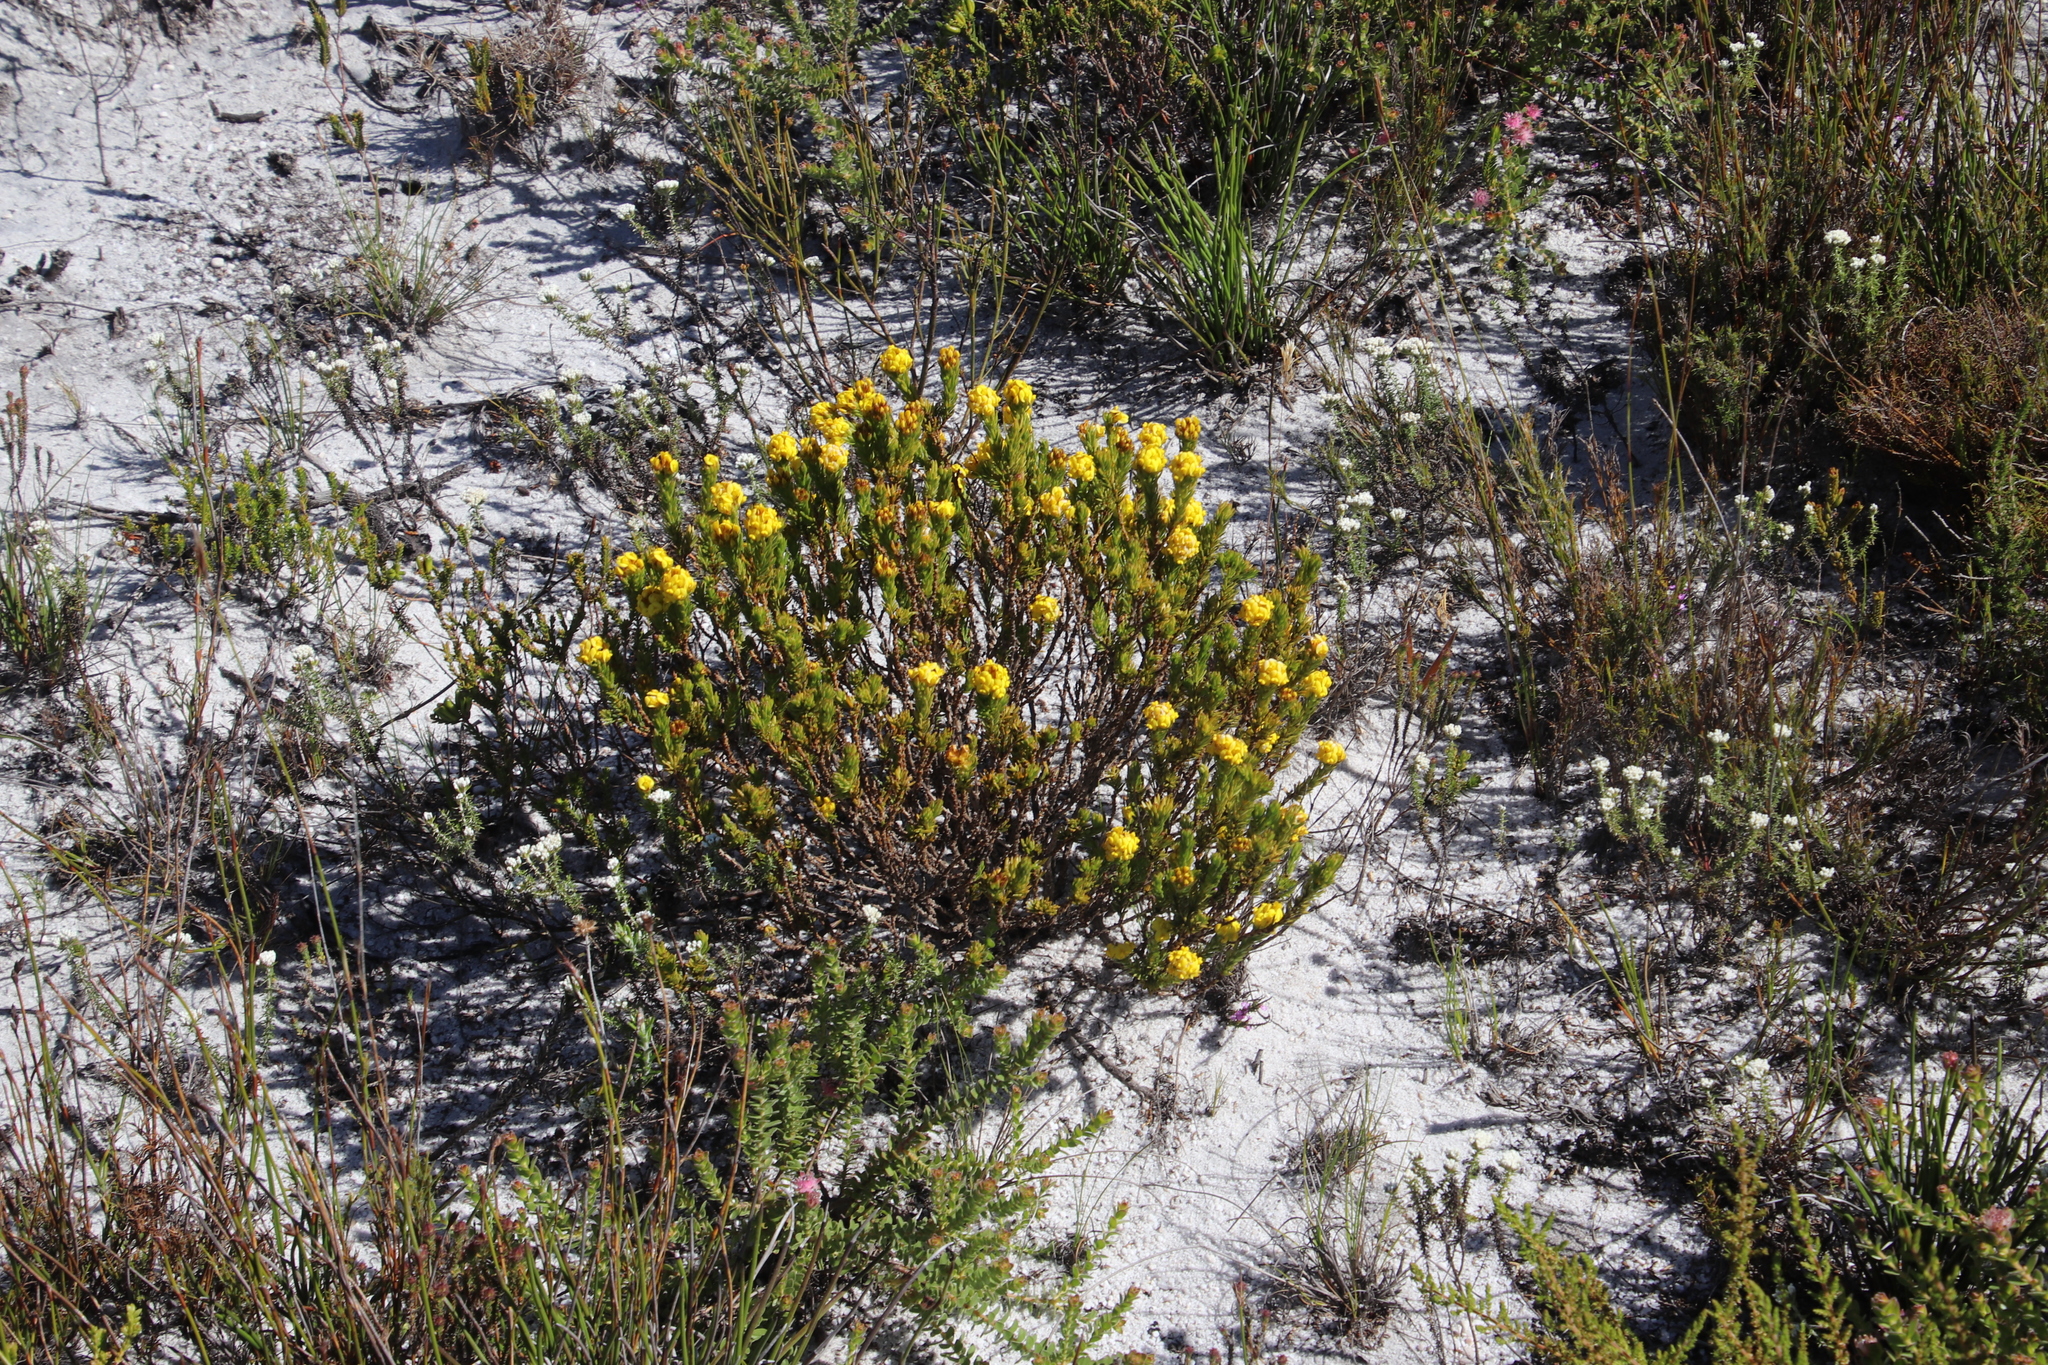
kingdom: Plantae
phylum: Tracheophyta
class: Magnoliopsida
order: Fabales
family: Fabaceae
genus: Aspalathus
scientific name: Aspalathus callosa
